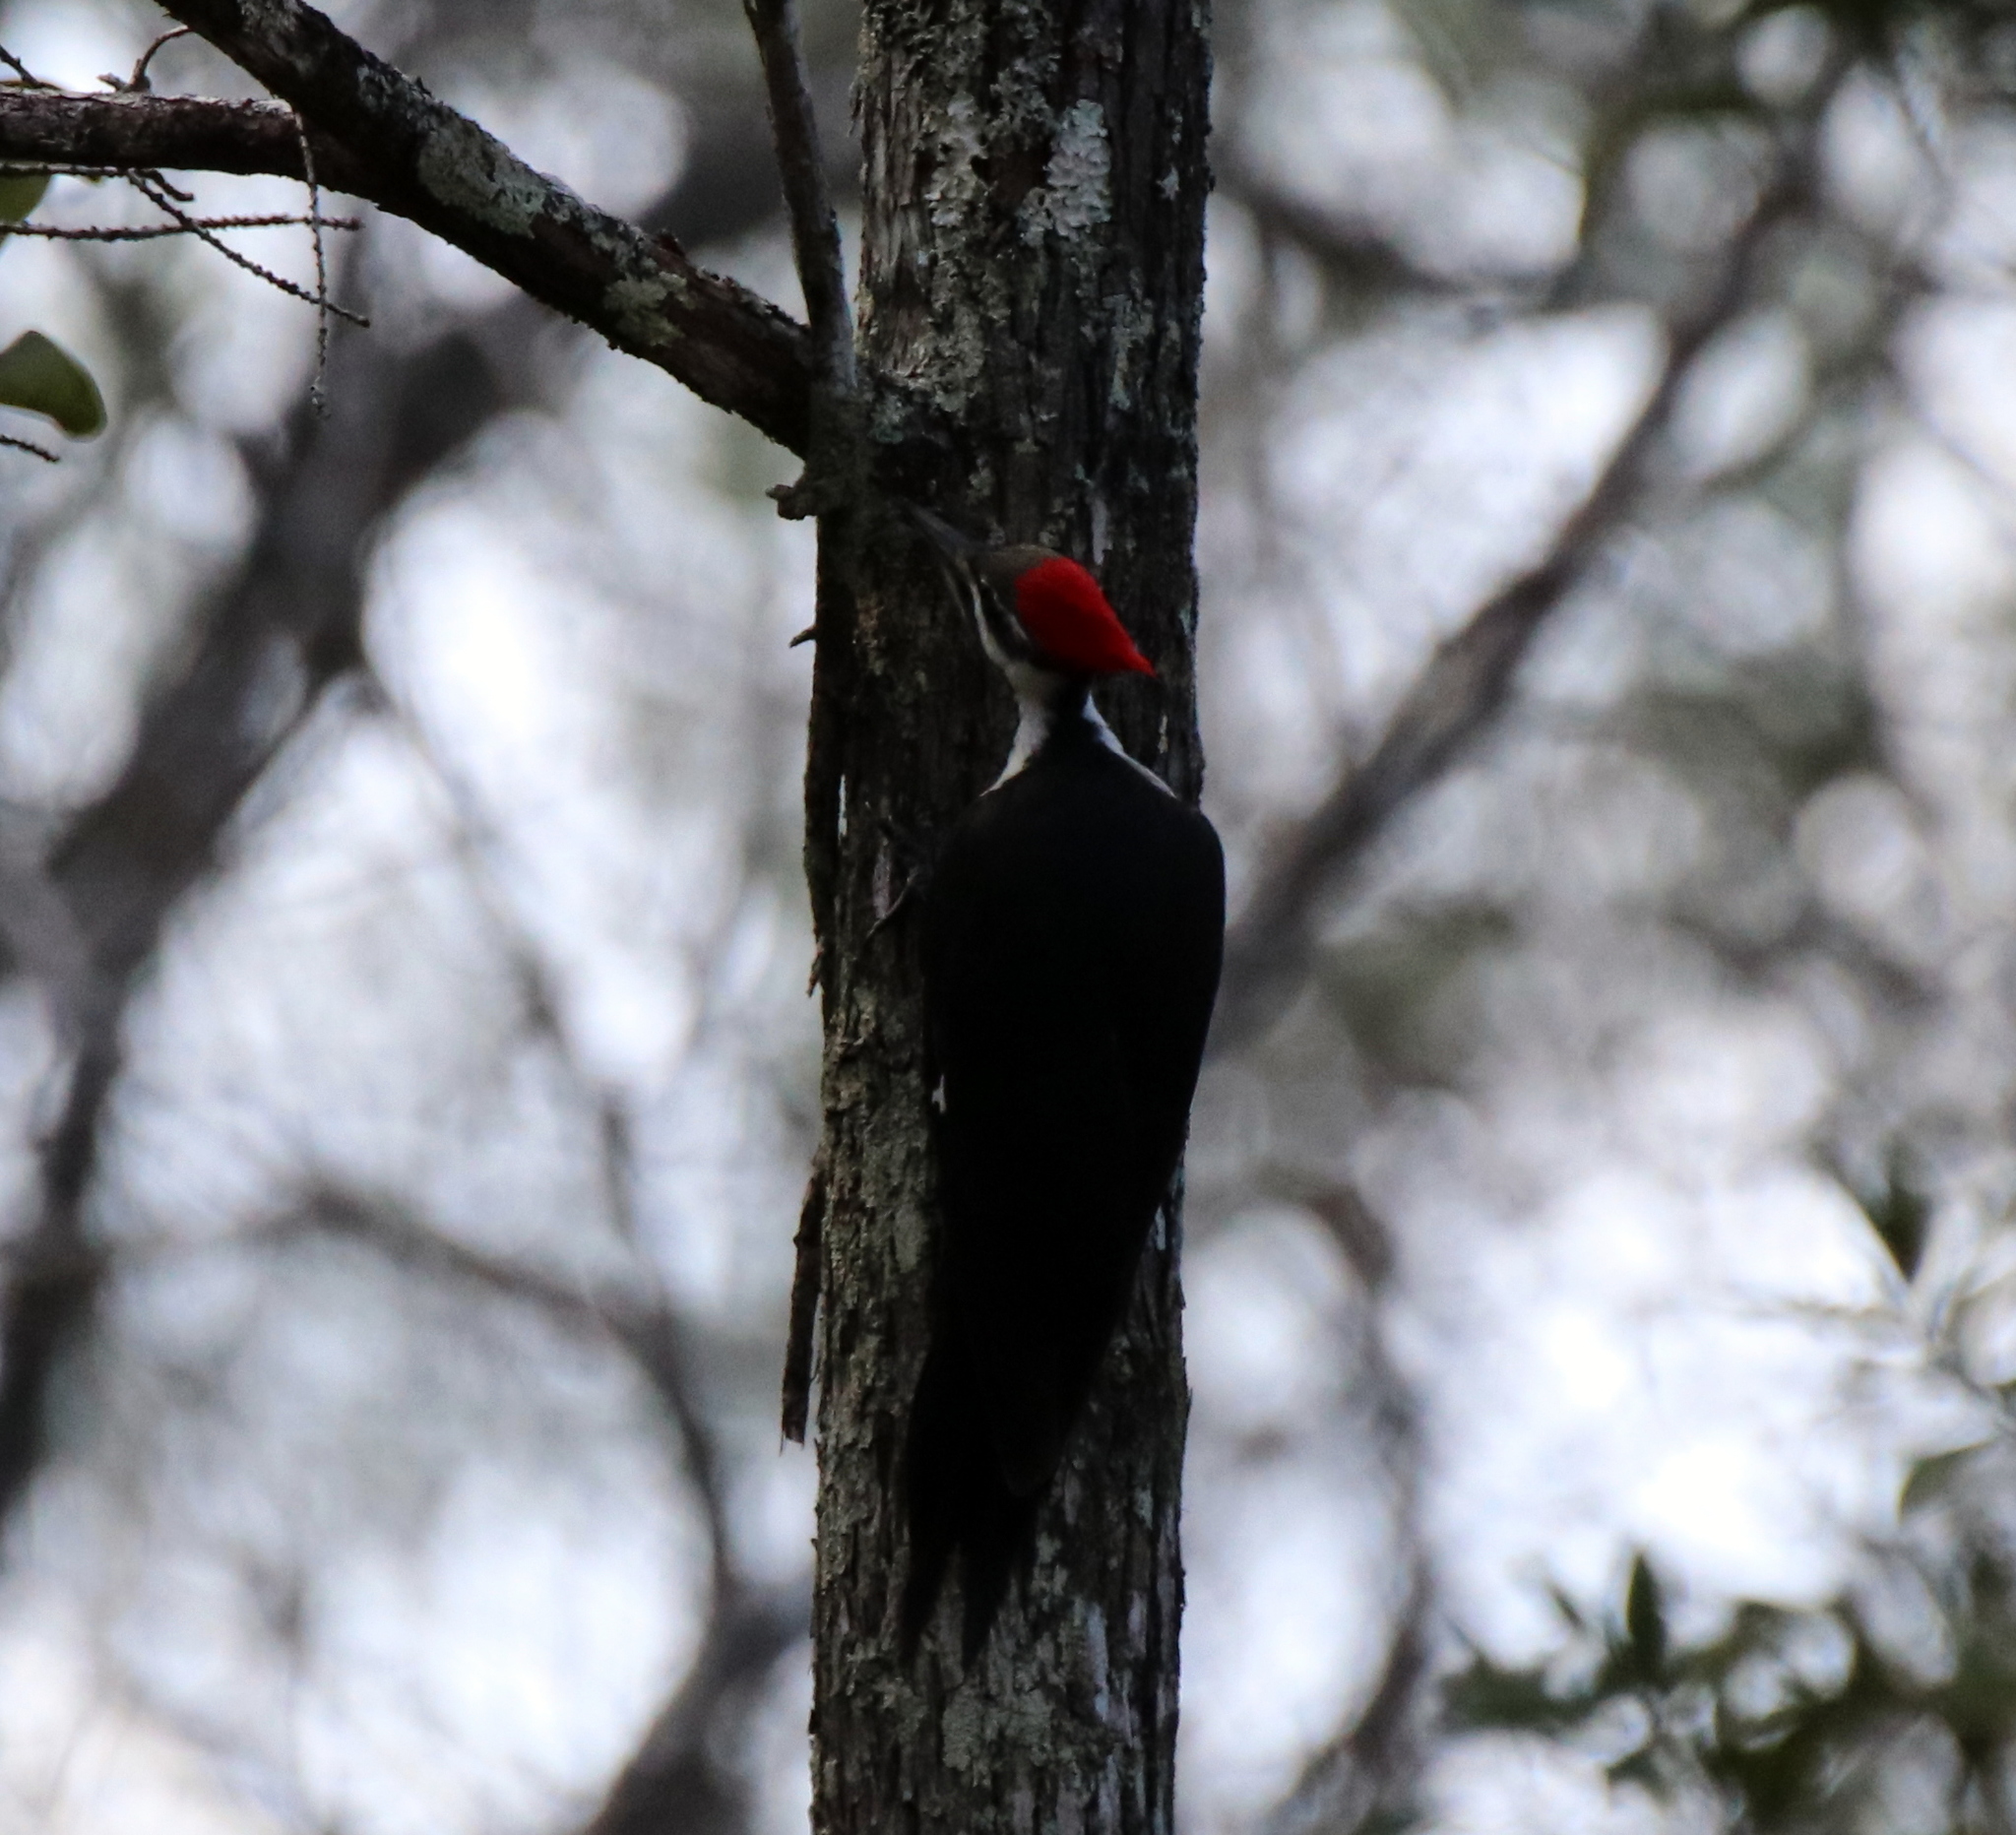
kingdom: Animalia
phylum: Chordata
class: Aves
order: Piciformes
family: Picidae
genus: Dryocopus
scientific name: Dryocopus pileatus
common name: Pileated woodpecker
